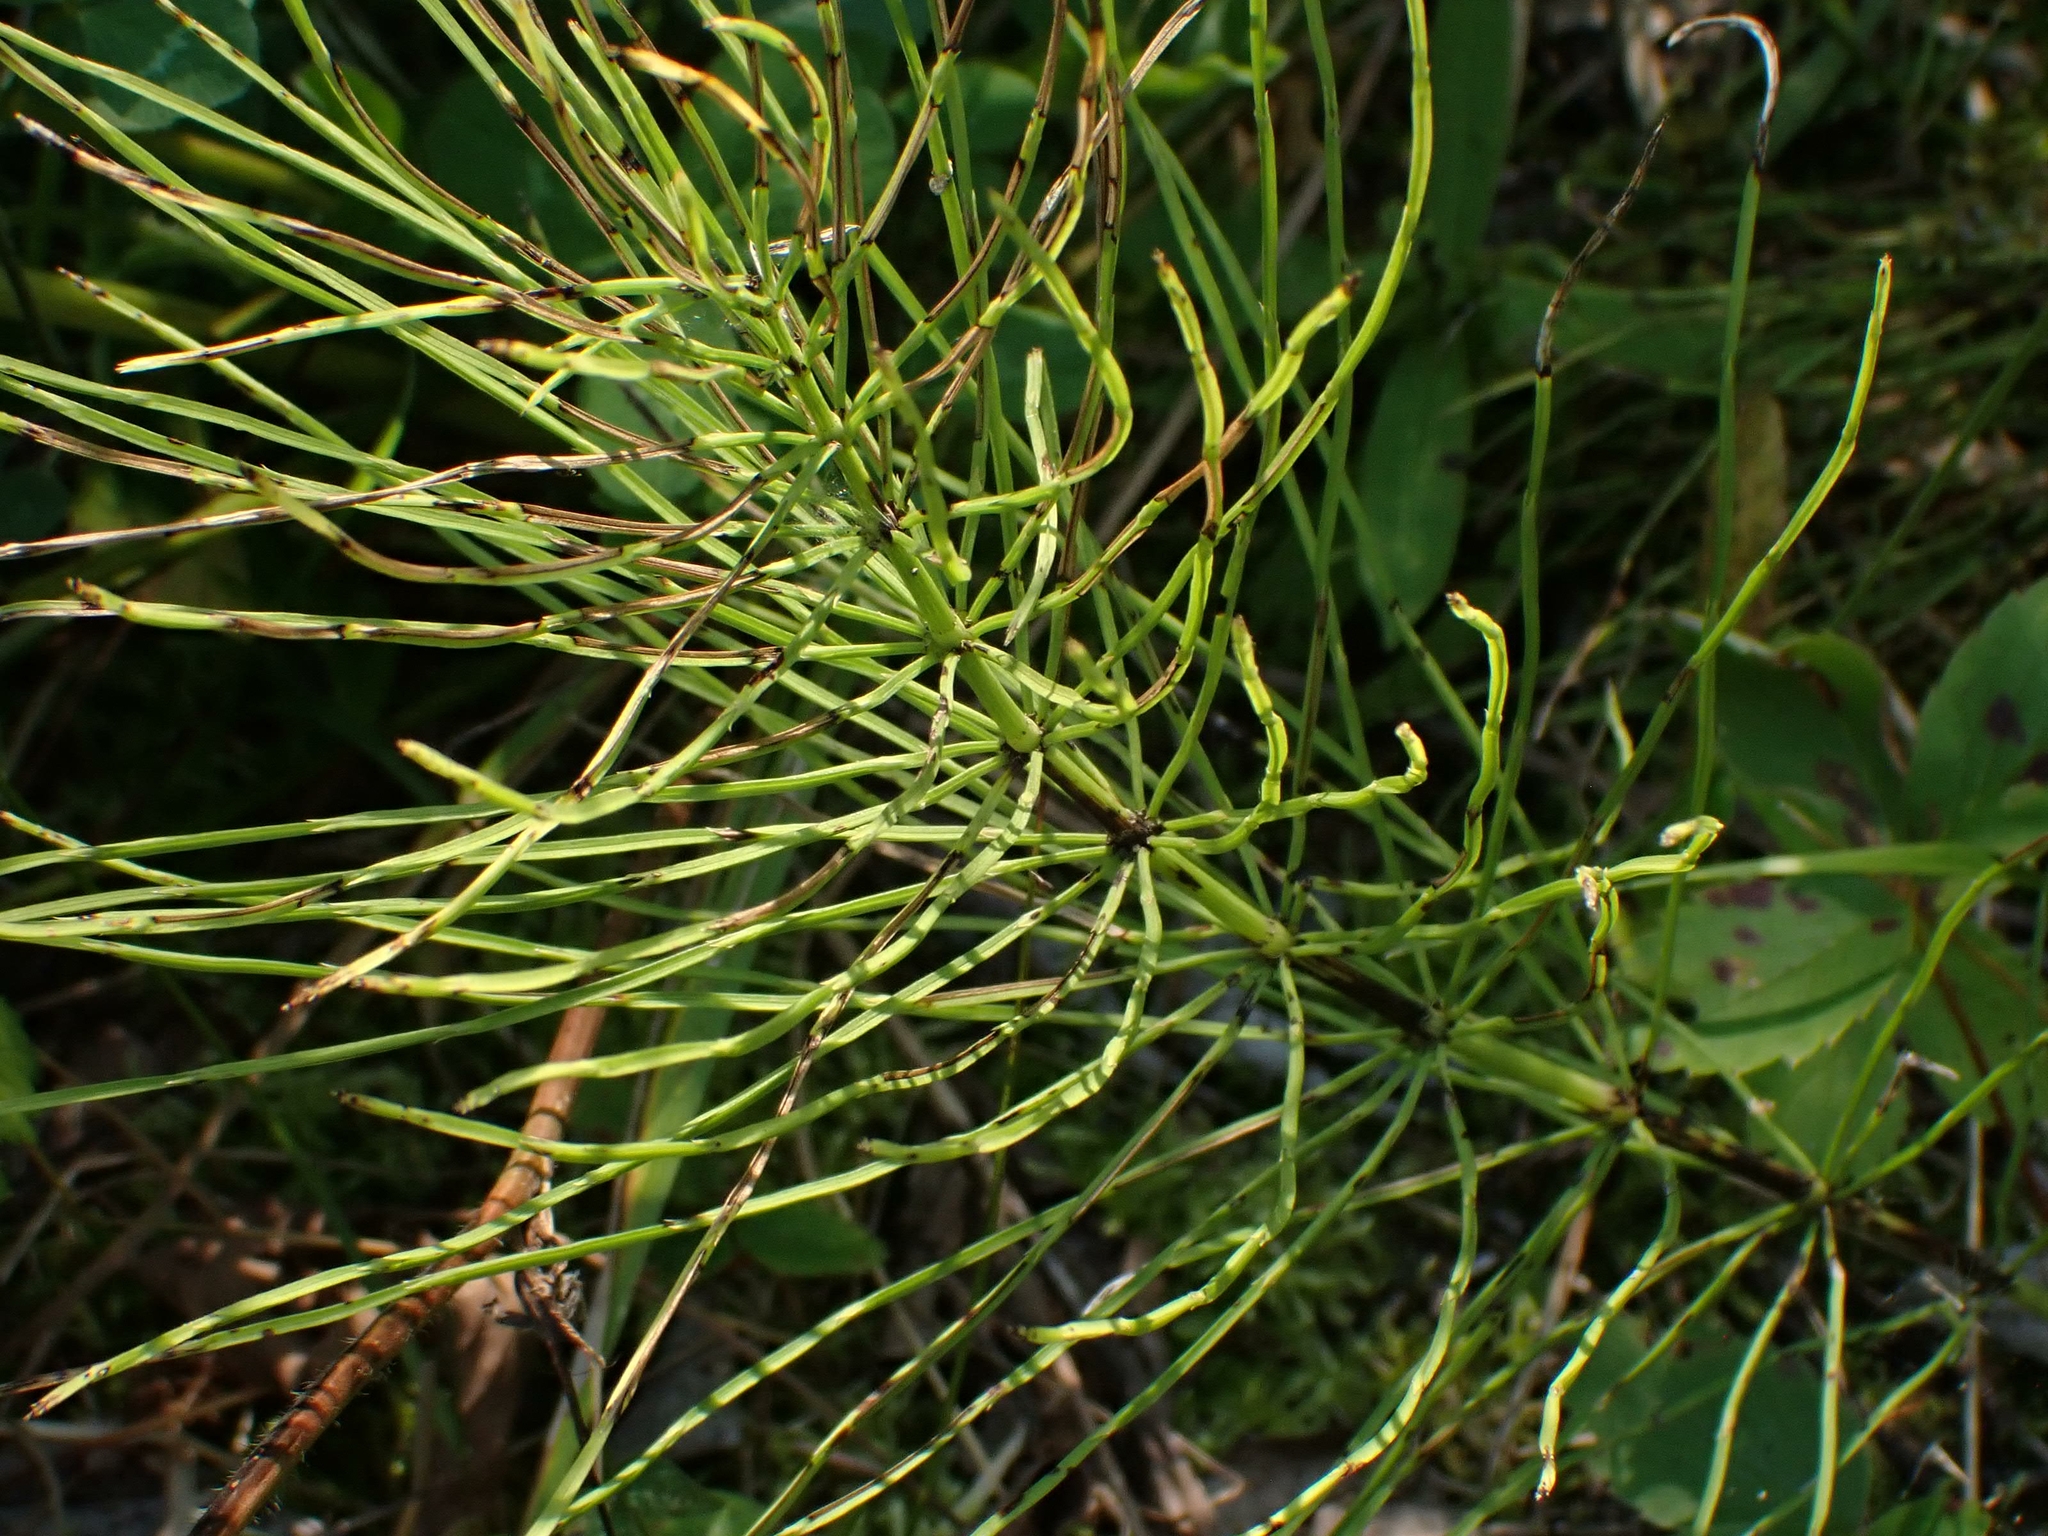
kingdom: Plantae
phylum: Tracheophyta
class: Polypodiopsida
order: Equisetales
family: Equisetaceae
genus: Equisetum
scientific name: Equisetum arvense
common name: Field horsetail
